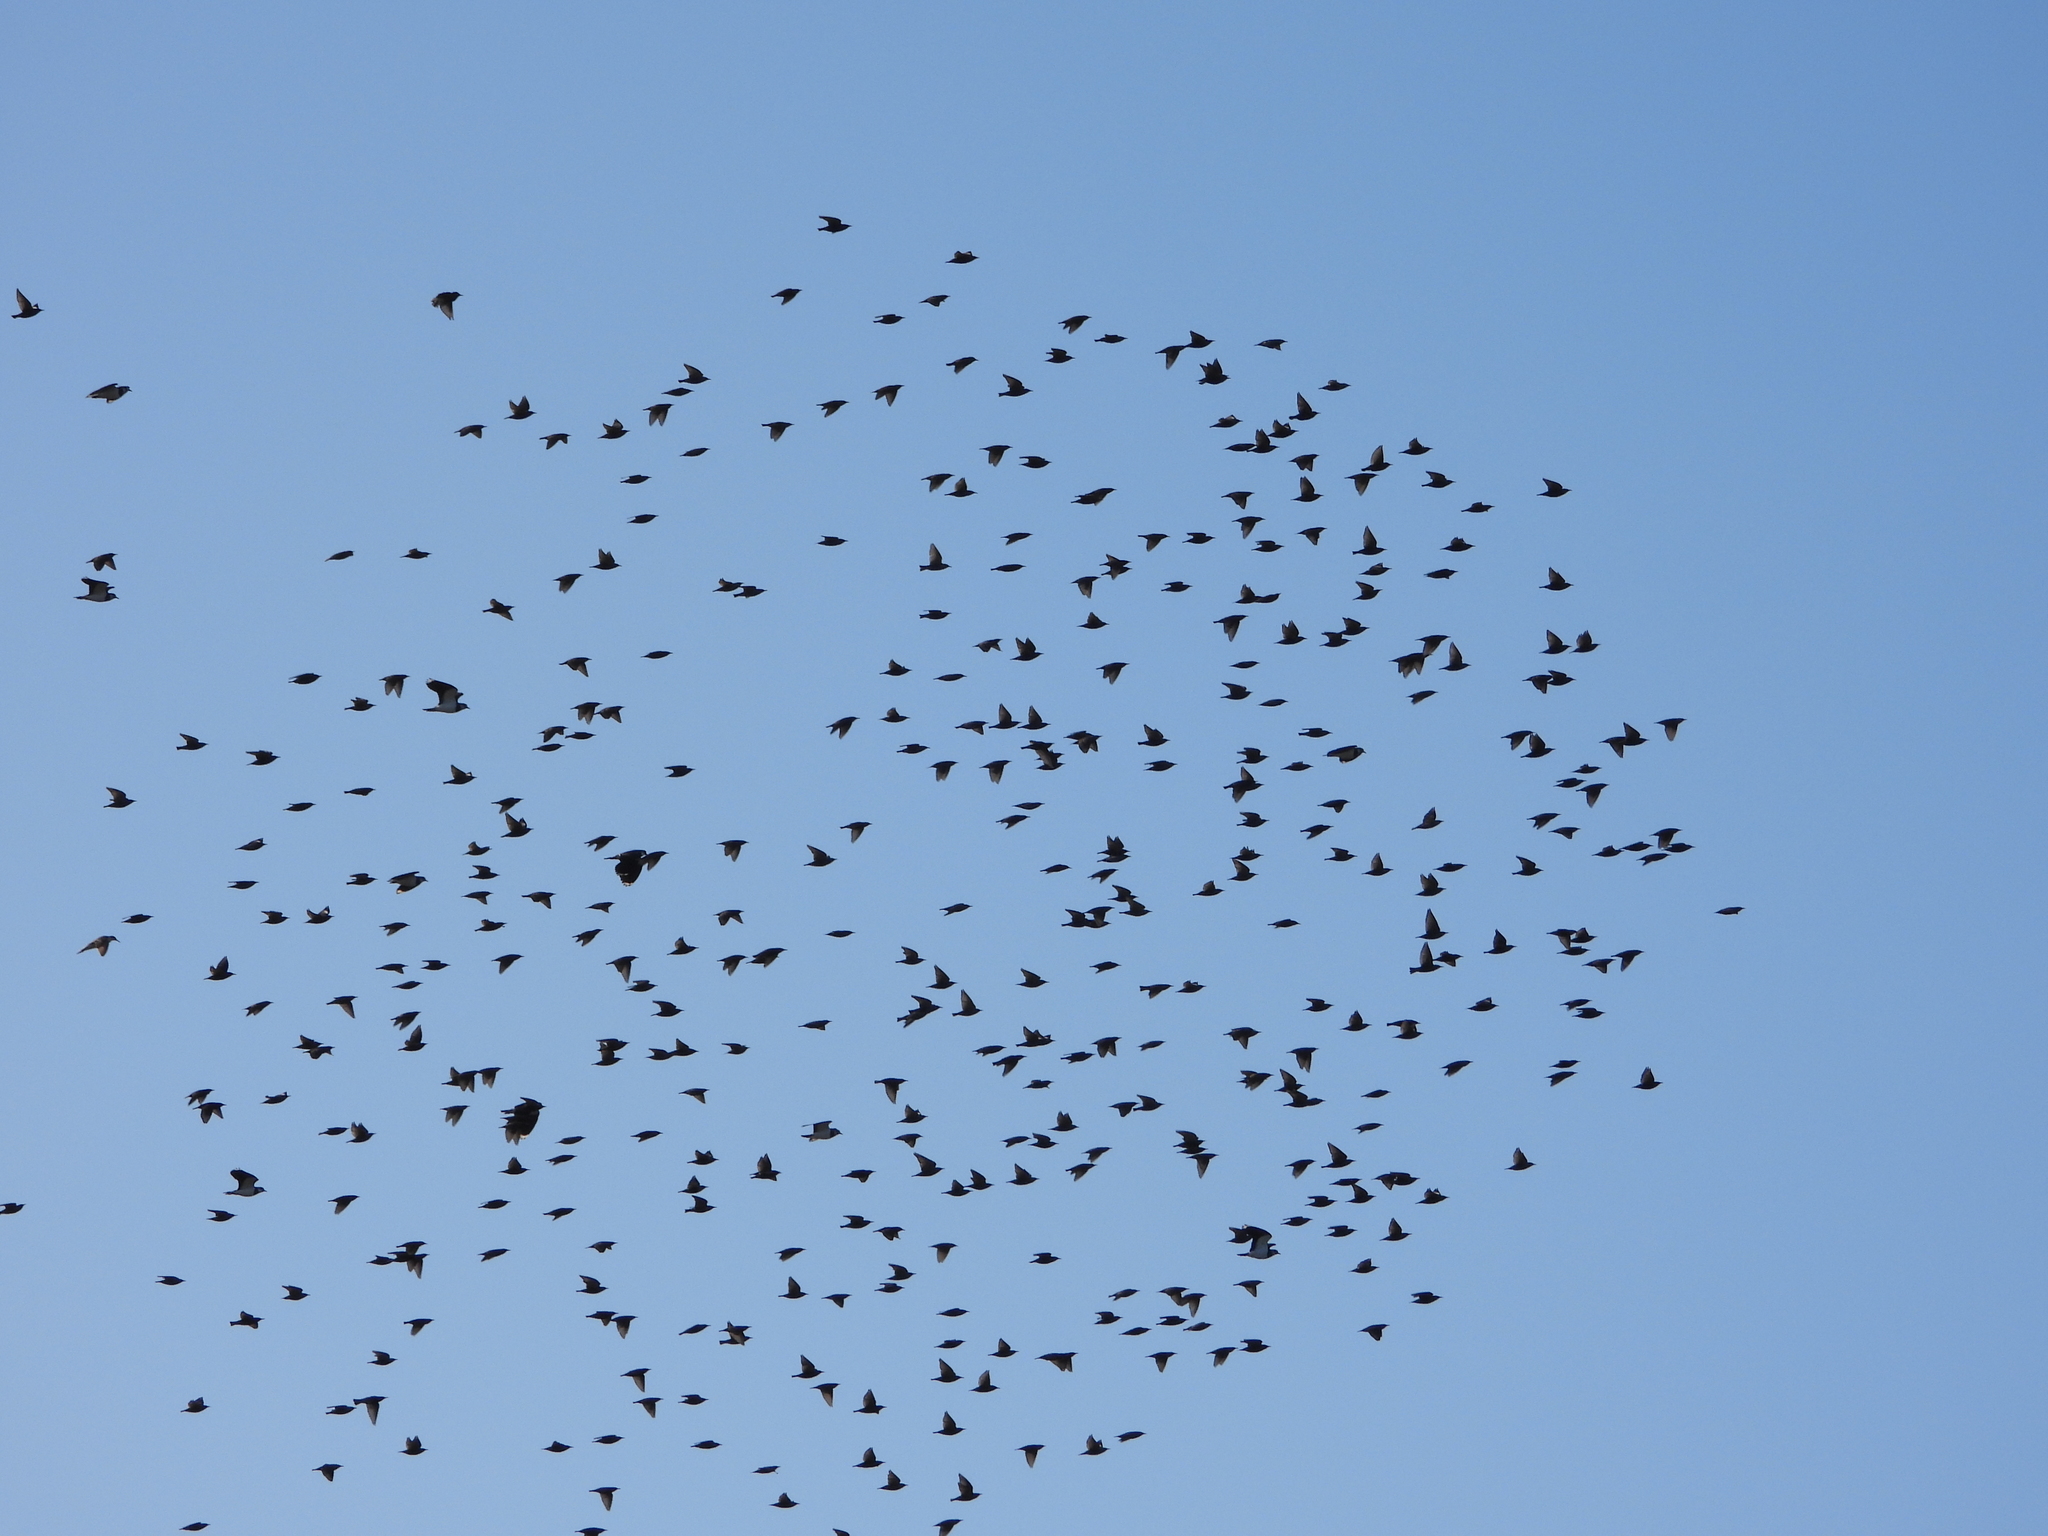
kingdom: Animalia
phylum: Chordata
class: Aves
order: Passeriformes
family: Sturnidae
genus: Sturnus
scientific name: Sturnus vulgaris
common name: Common starling
